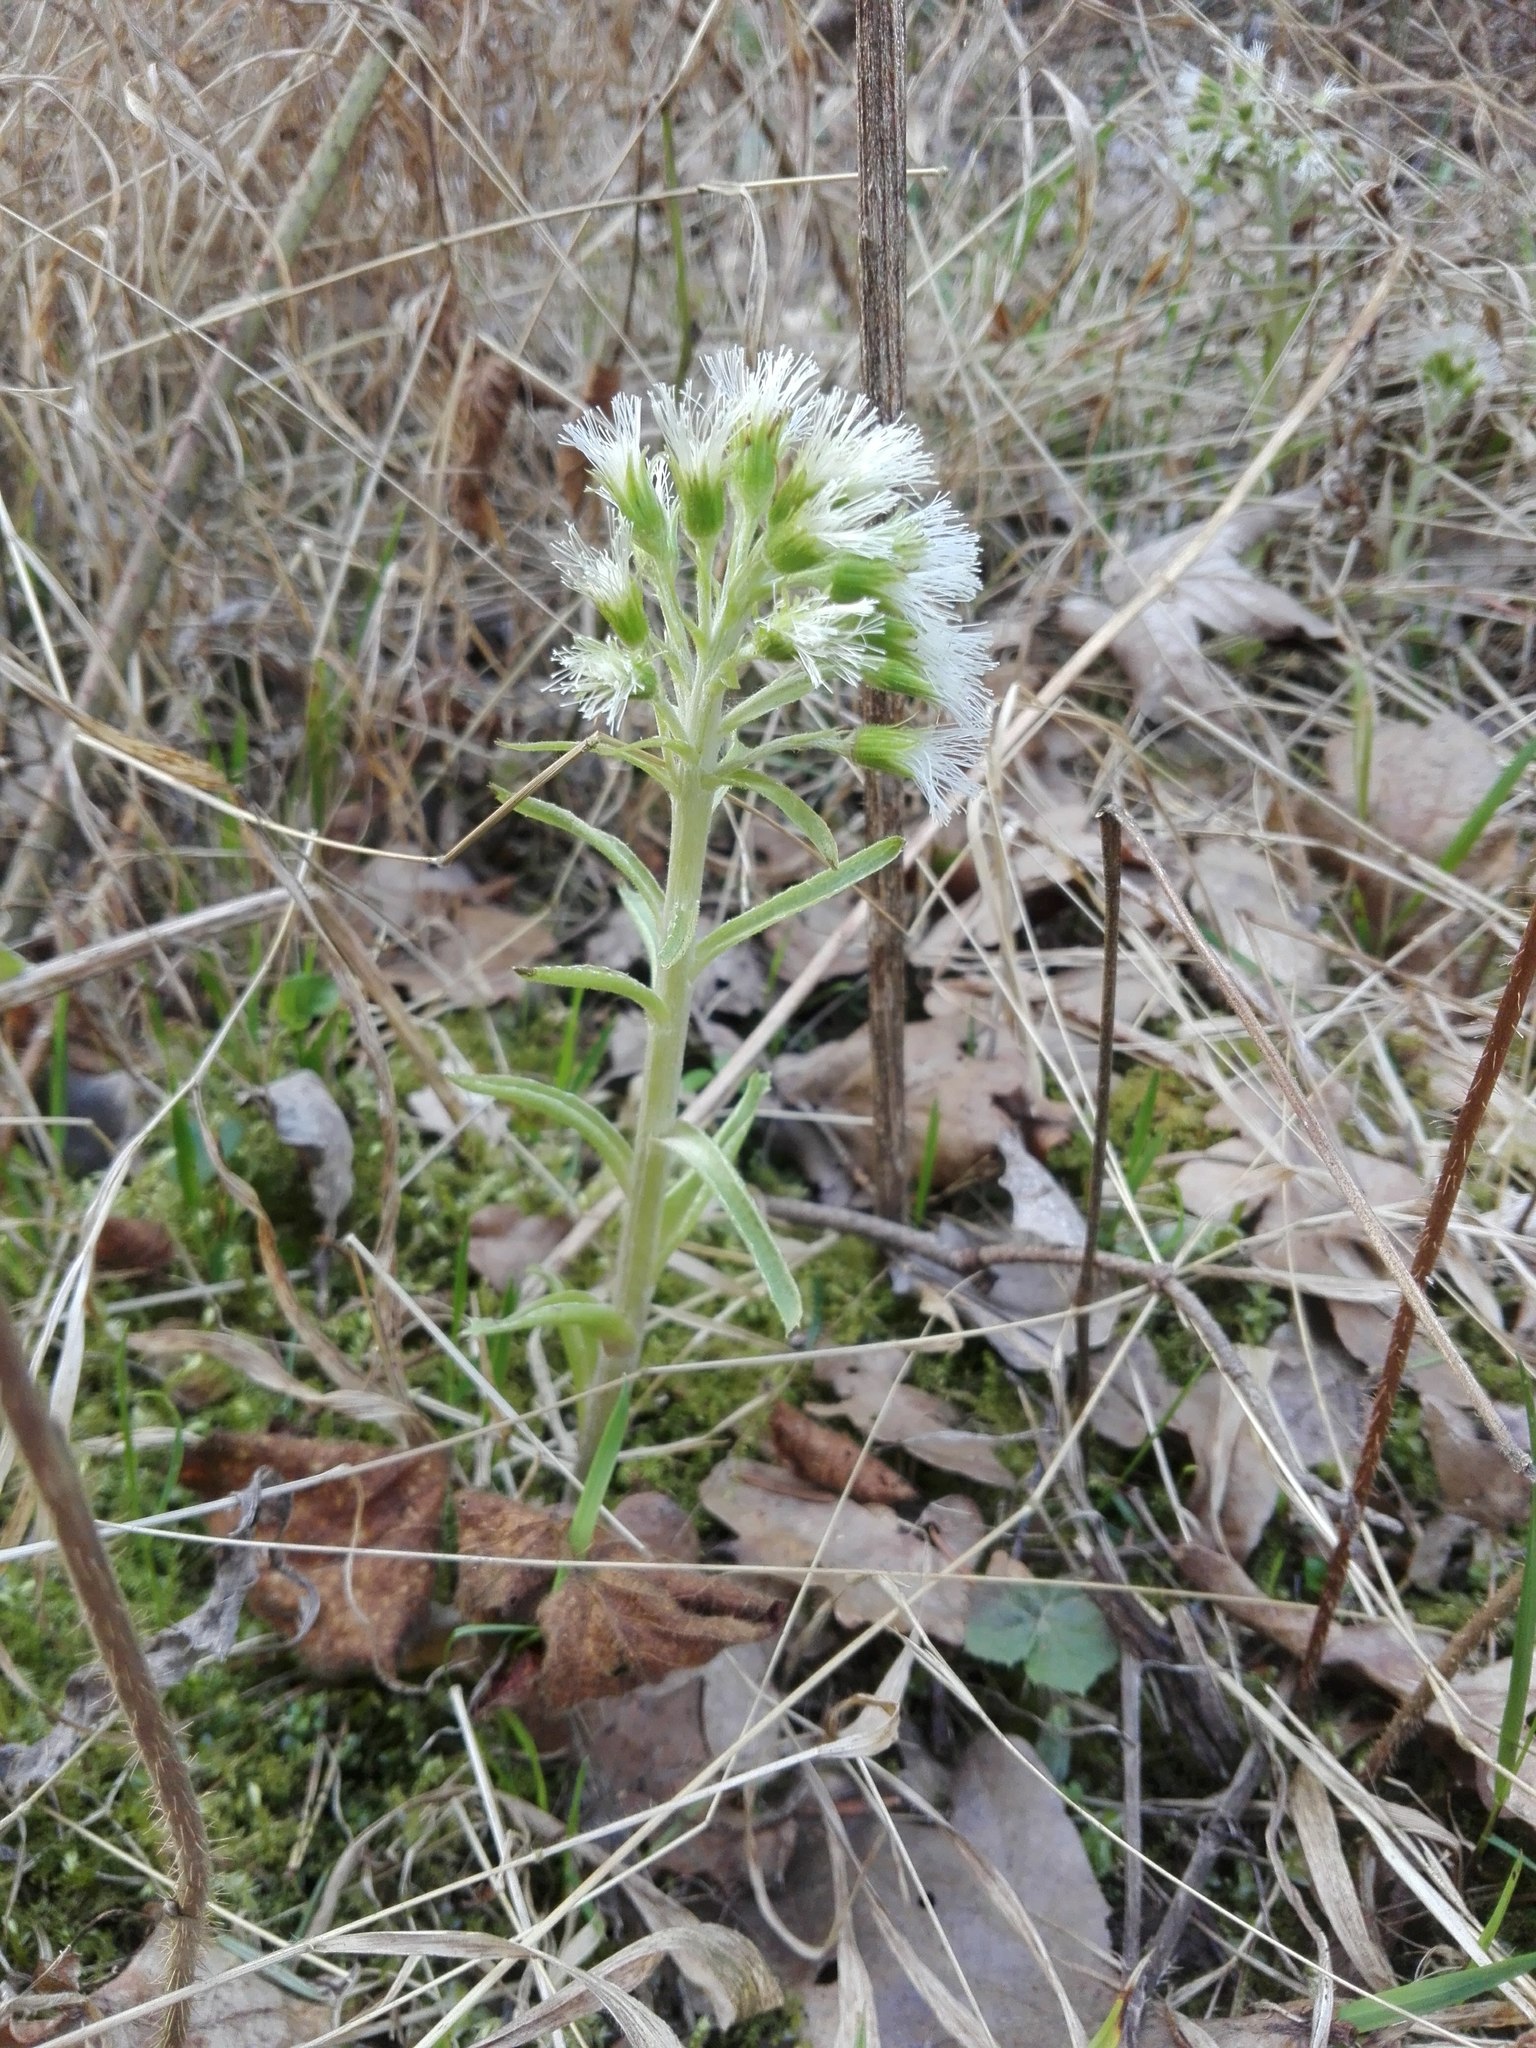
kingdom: Plantae
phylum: Tracheophyta
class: Magnoliopsida
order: Asterales
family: Asteraceae
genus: Petasites
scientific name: Petasites albus
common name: White butterbur
